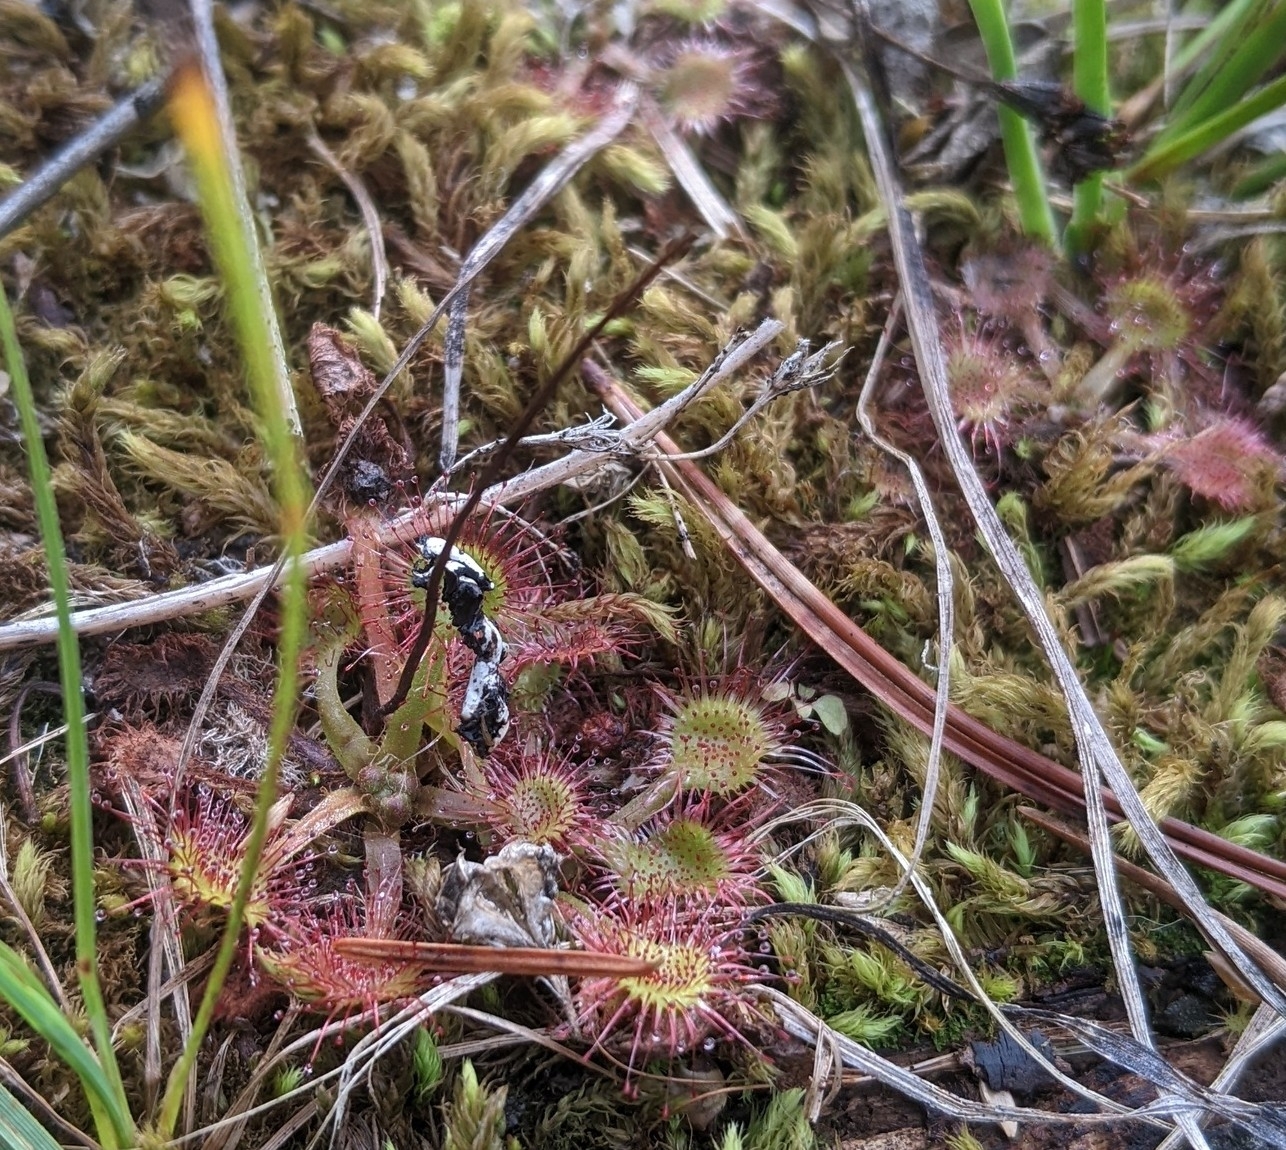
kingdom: Plantae
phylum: Tracheophyta
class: Magnoliopsida
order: Caryophyllales
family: Droseraceae
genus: Drosera
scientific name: Drosera rotundifolia
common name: Round-leaved sundew
